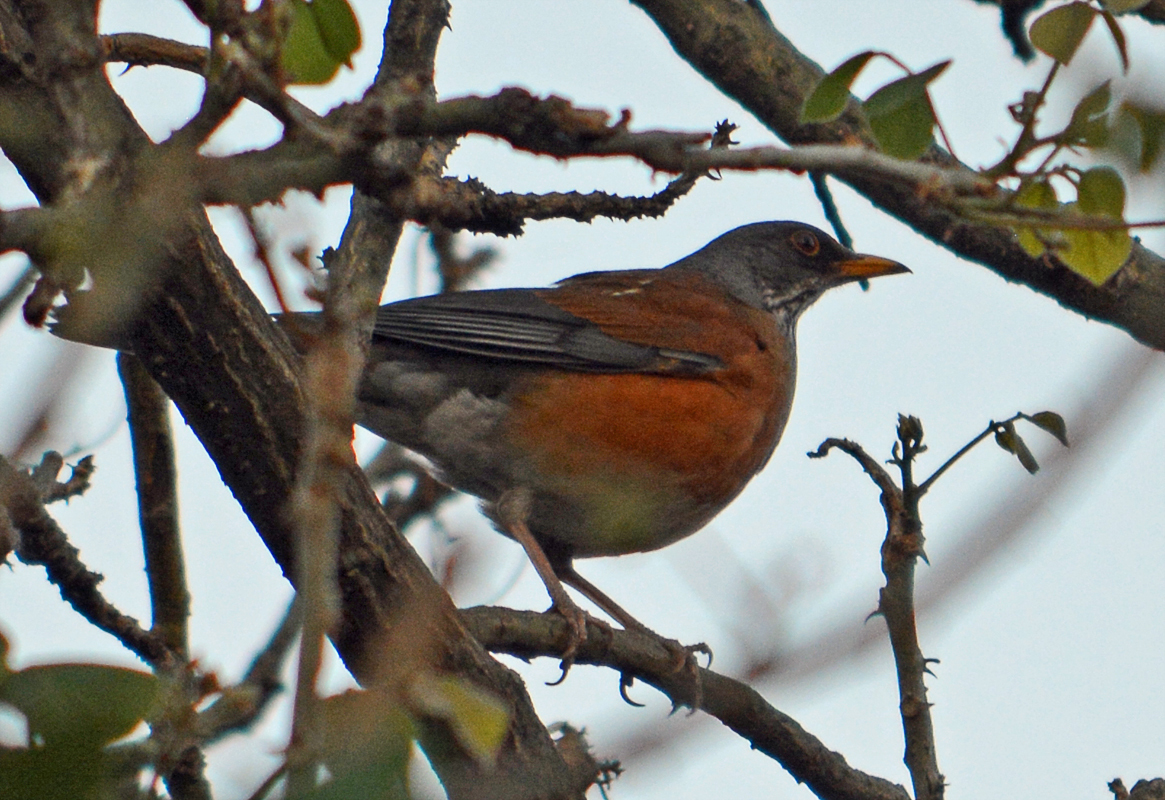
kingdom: Animalia
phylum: Chordata
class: Aves
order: Passeriformes
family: Turdidae
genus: Turdus
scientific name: Turdus rufopalliatus
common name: Rufous-backed robin
